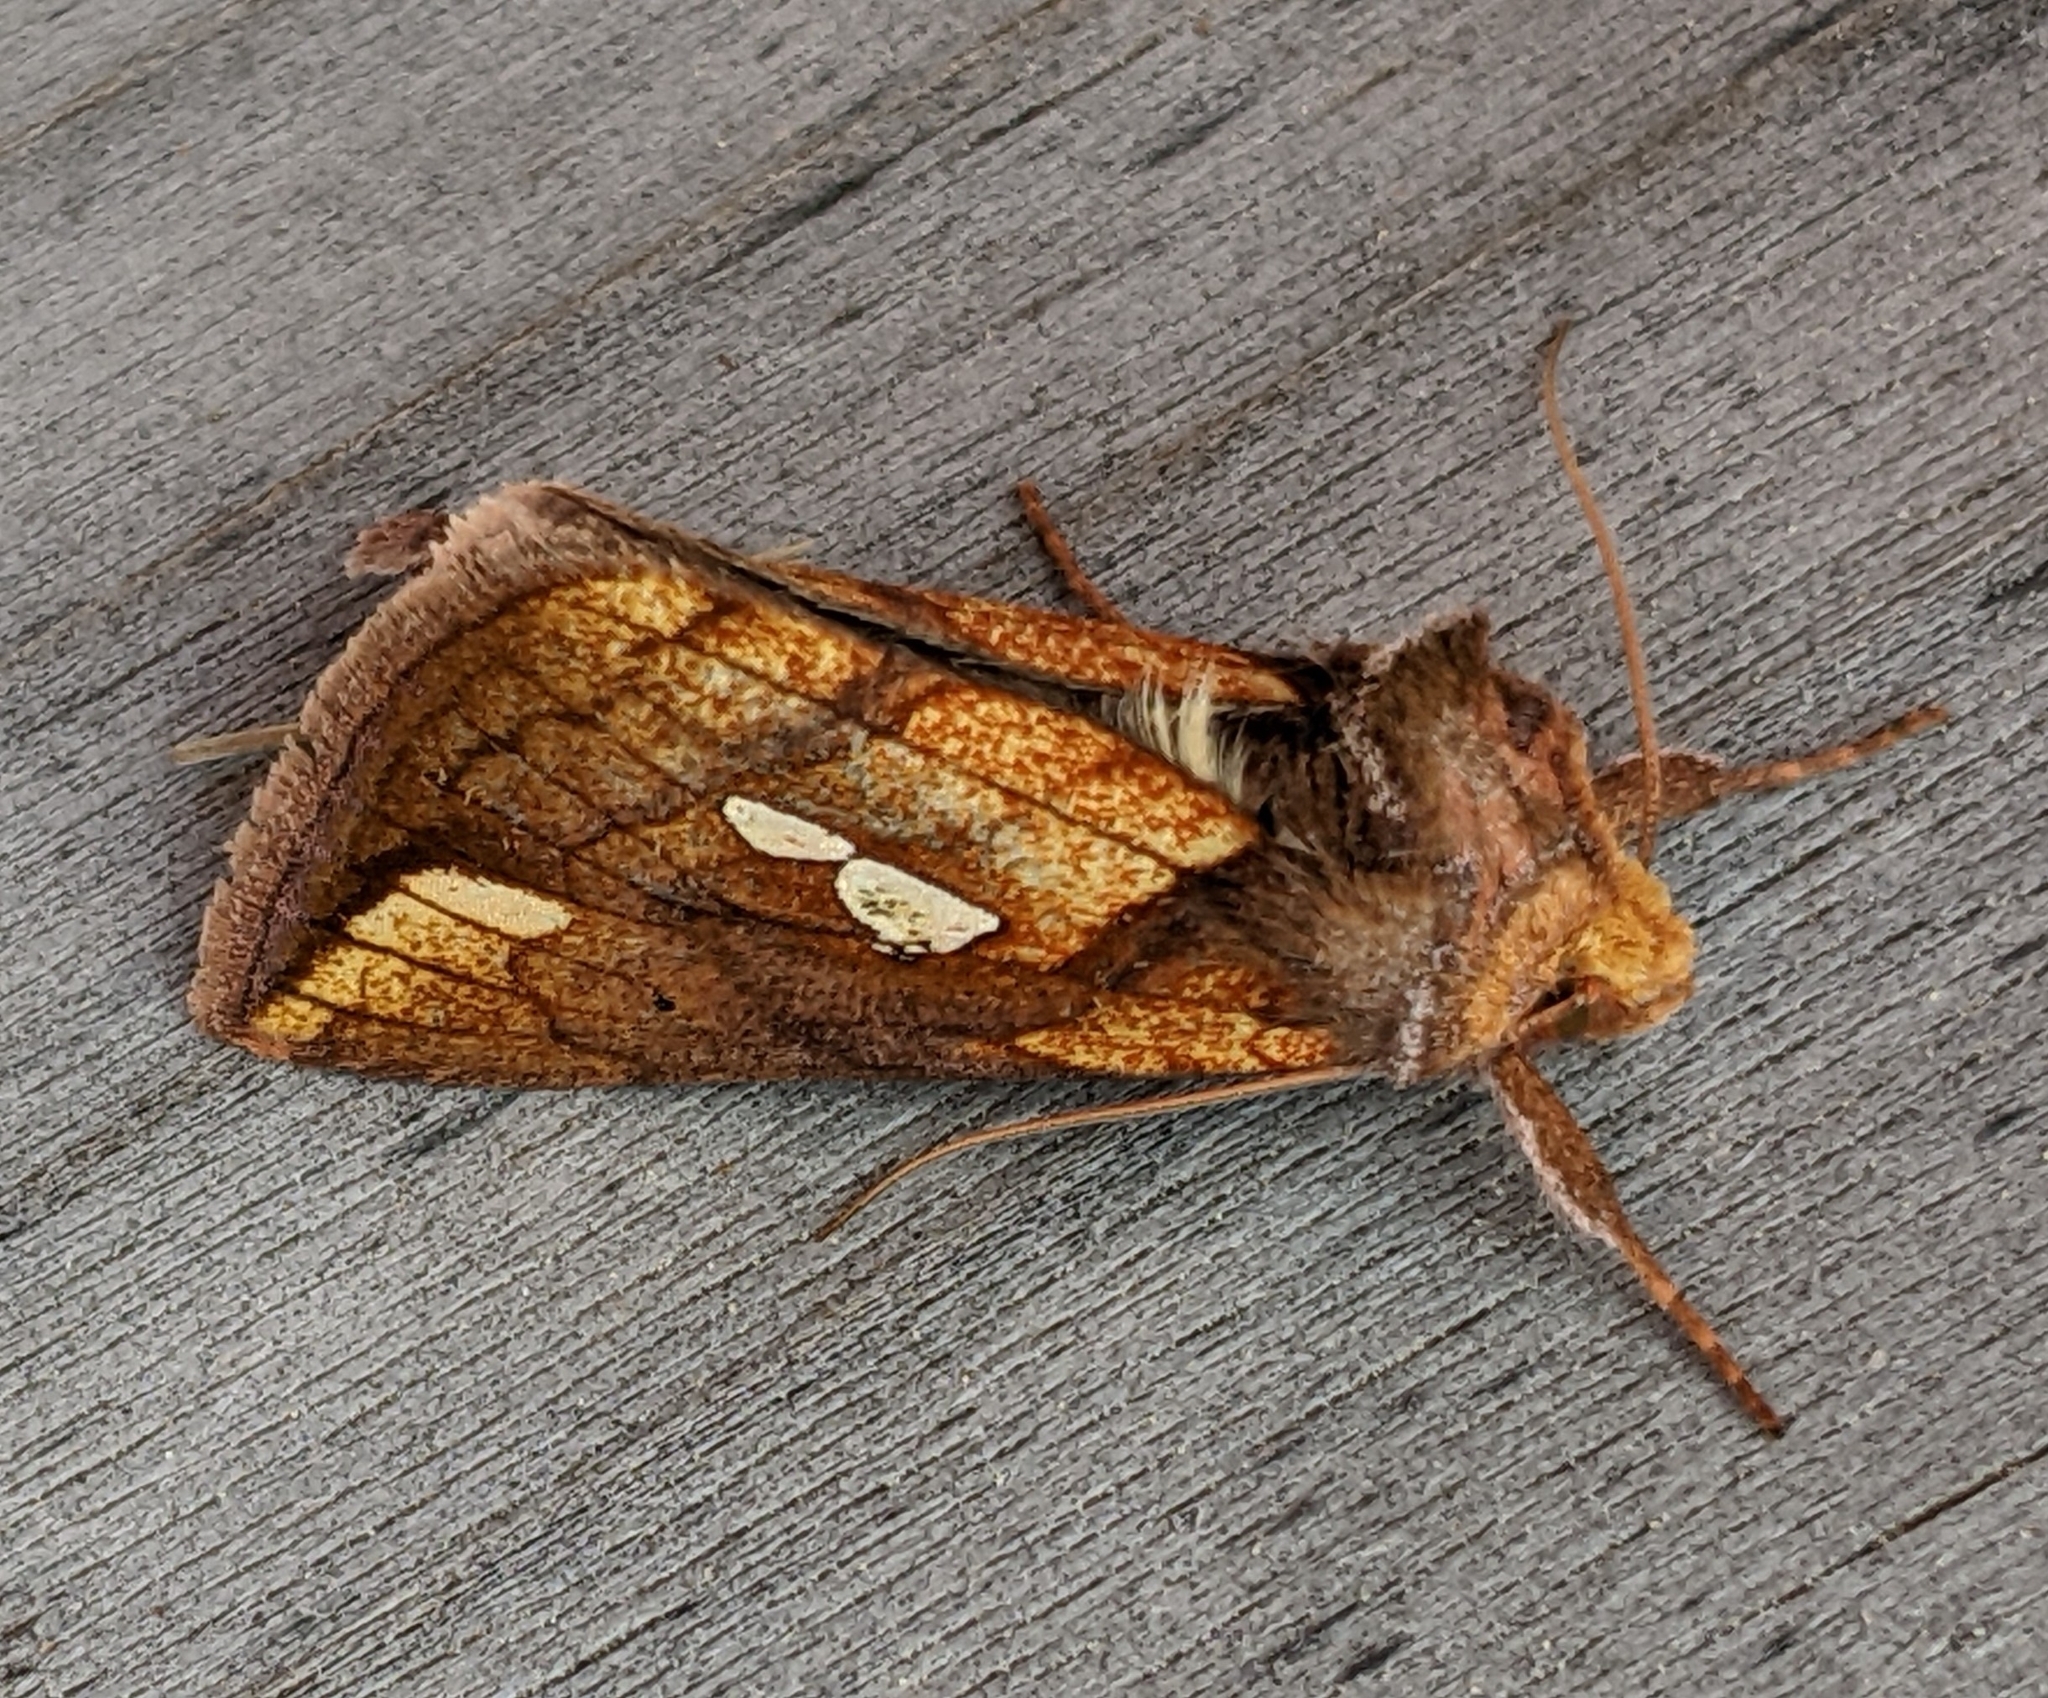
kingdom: Animalia
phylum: Arthropoda
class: Insecta
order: Lepidoptera
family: Noctuidae
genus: Plusia
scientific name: Plusia nichollae
